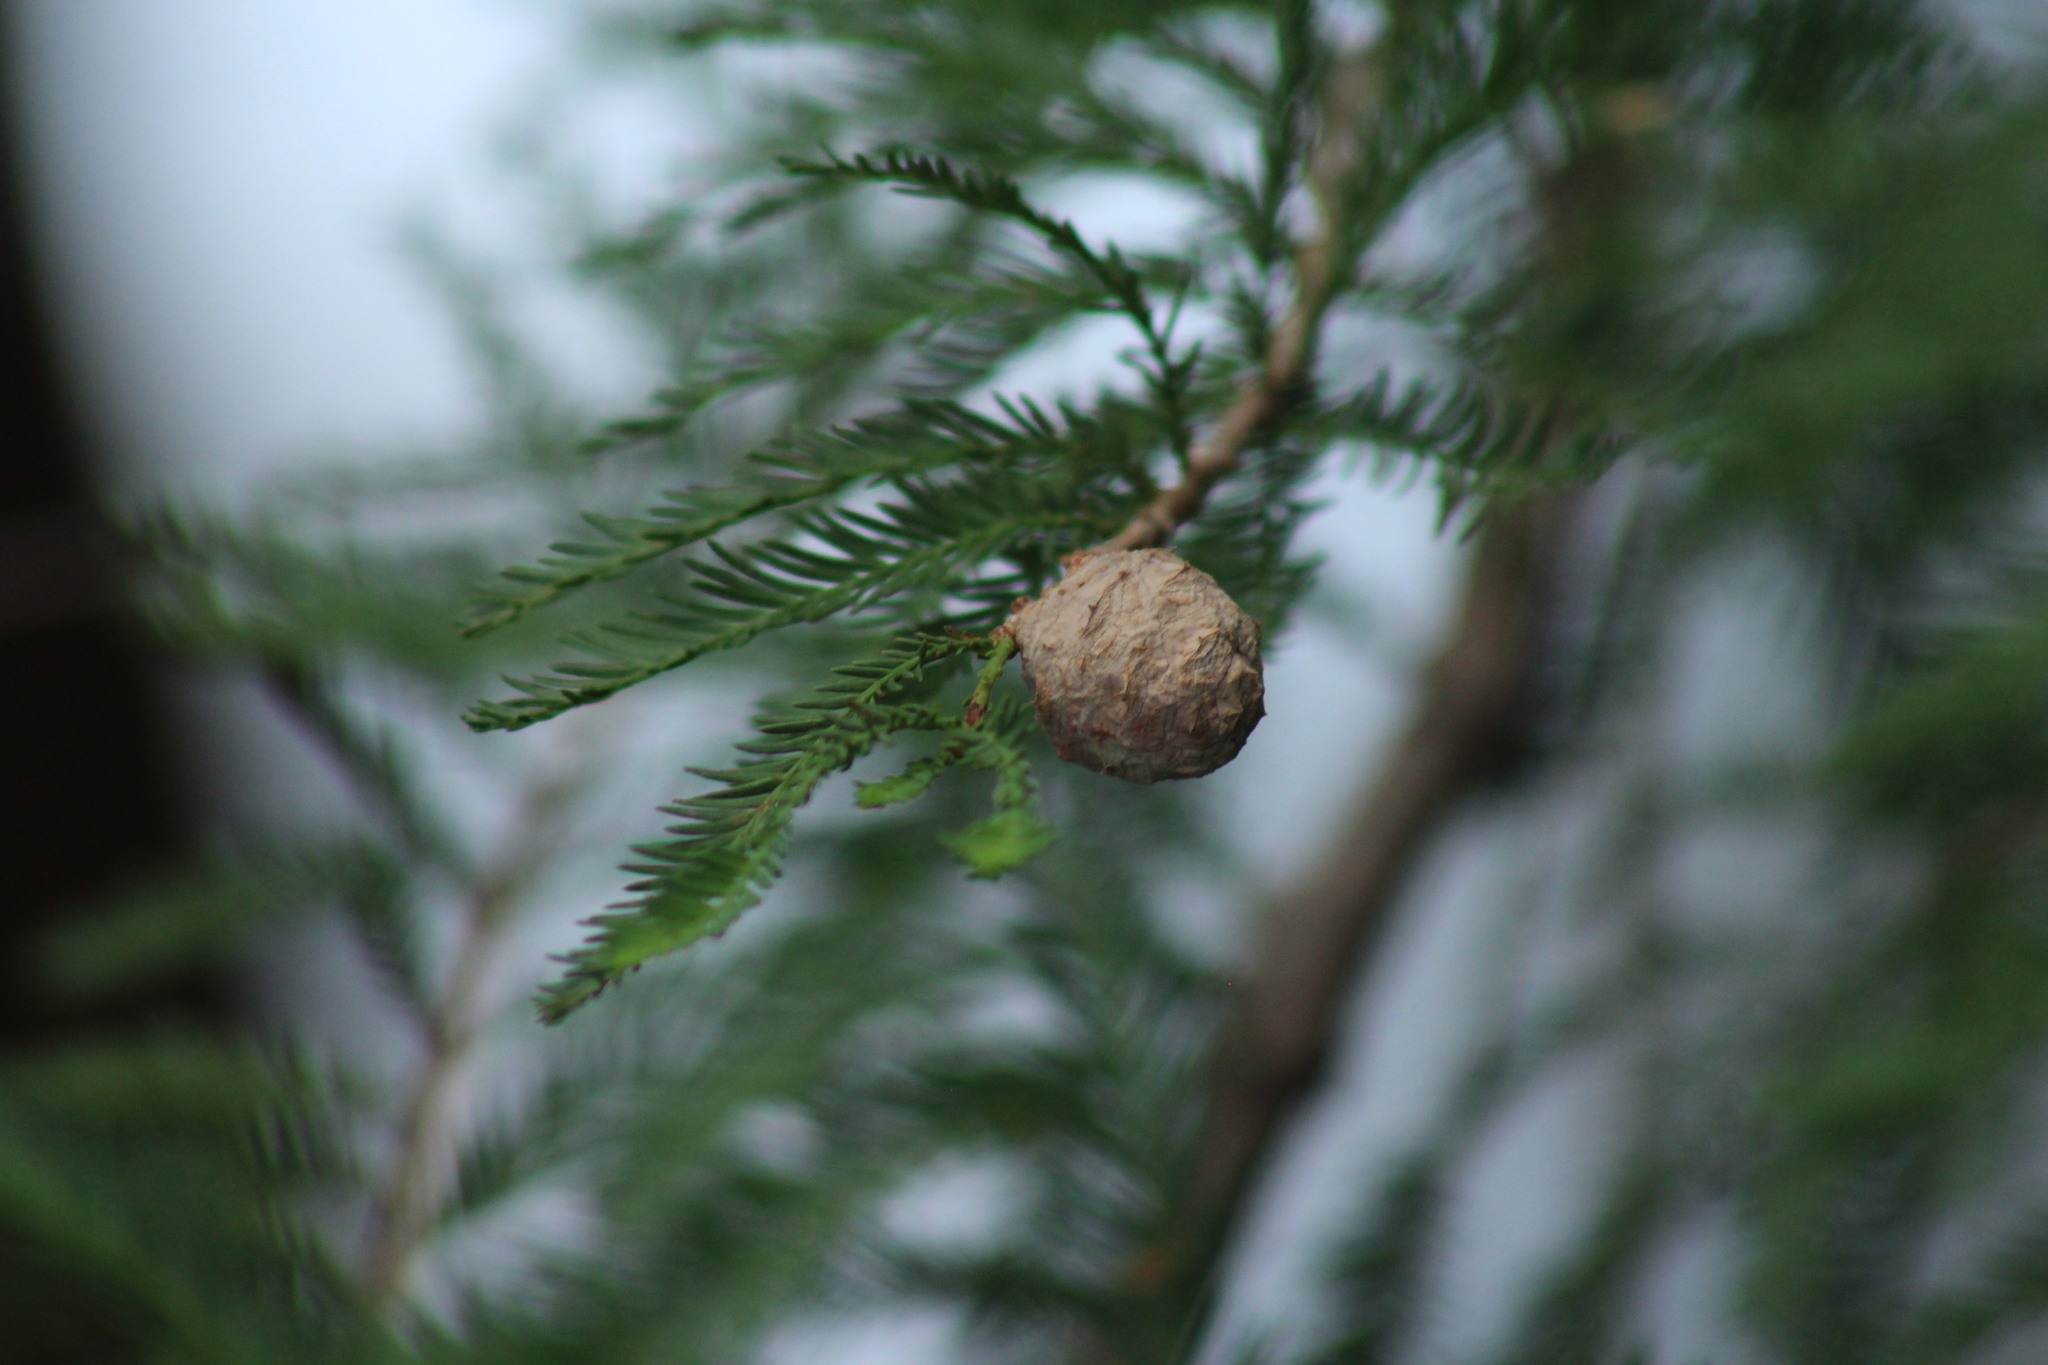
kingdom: Plantae
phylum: Tracheophyta
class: Pinopsida
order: Pinales
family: Cupressaceae
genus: Taxodium
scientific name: Taxodium mucronatum
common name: Montezume bald cypress
